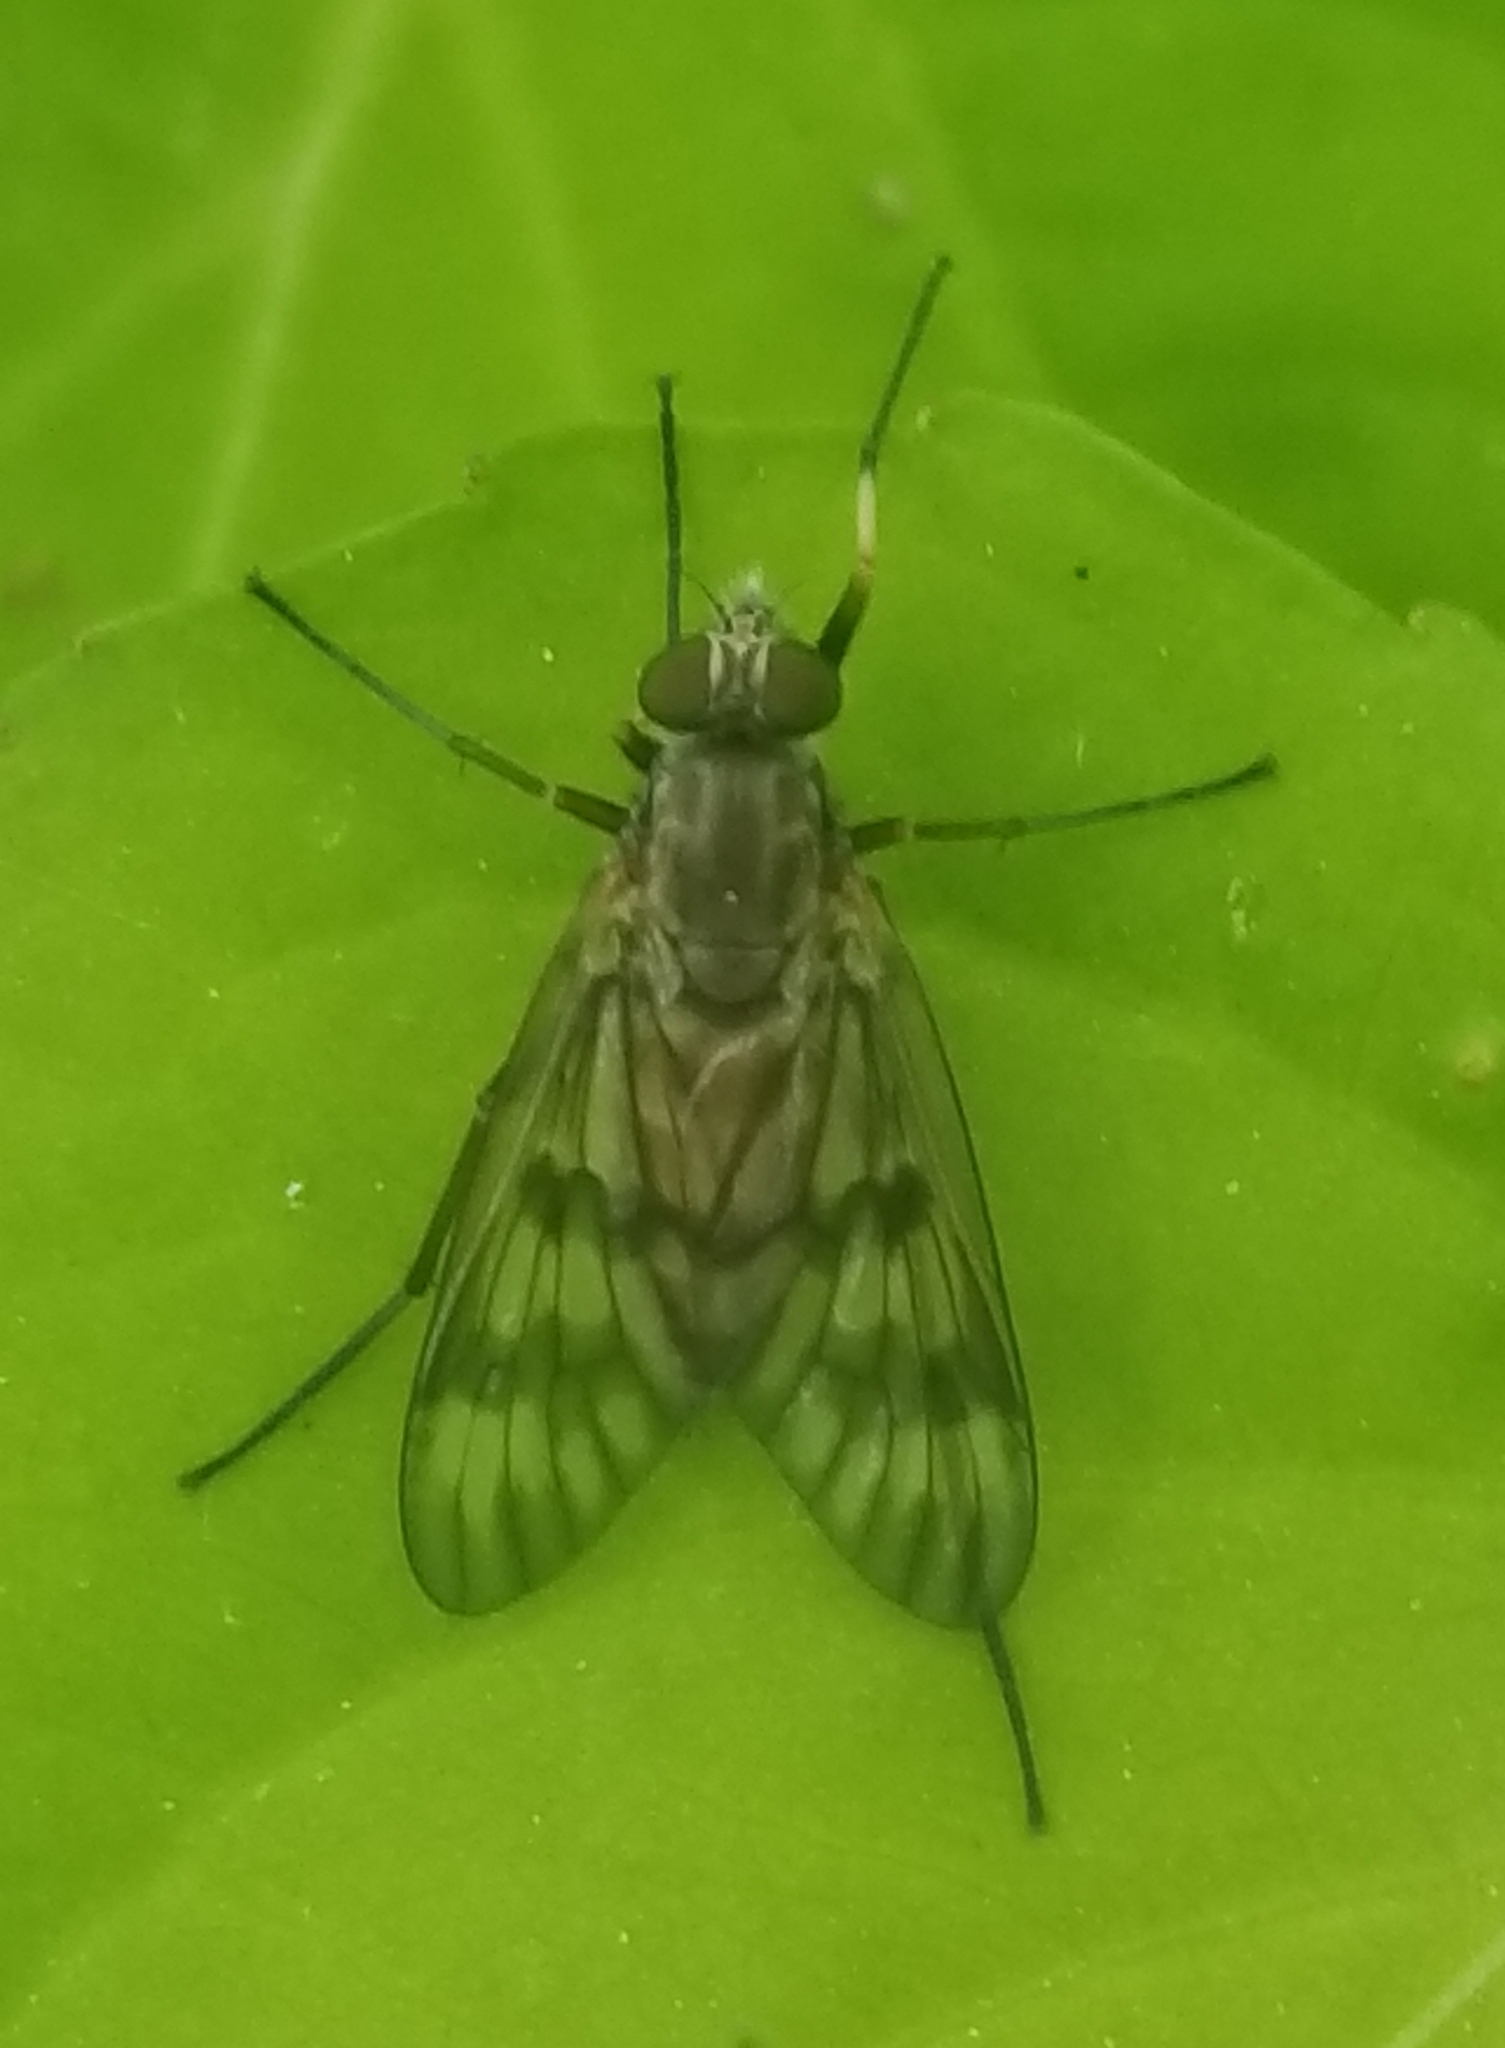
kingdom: Animalia
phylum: Arthropoda
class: Insecta
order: Diptera
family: Rhagionidae
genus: Rhagio
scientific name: Rhagio mystaceus
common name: Common snipe fly
